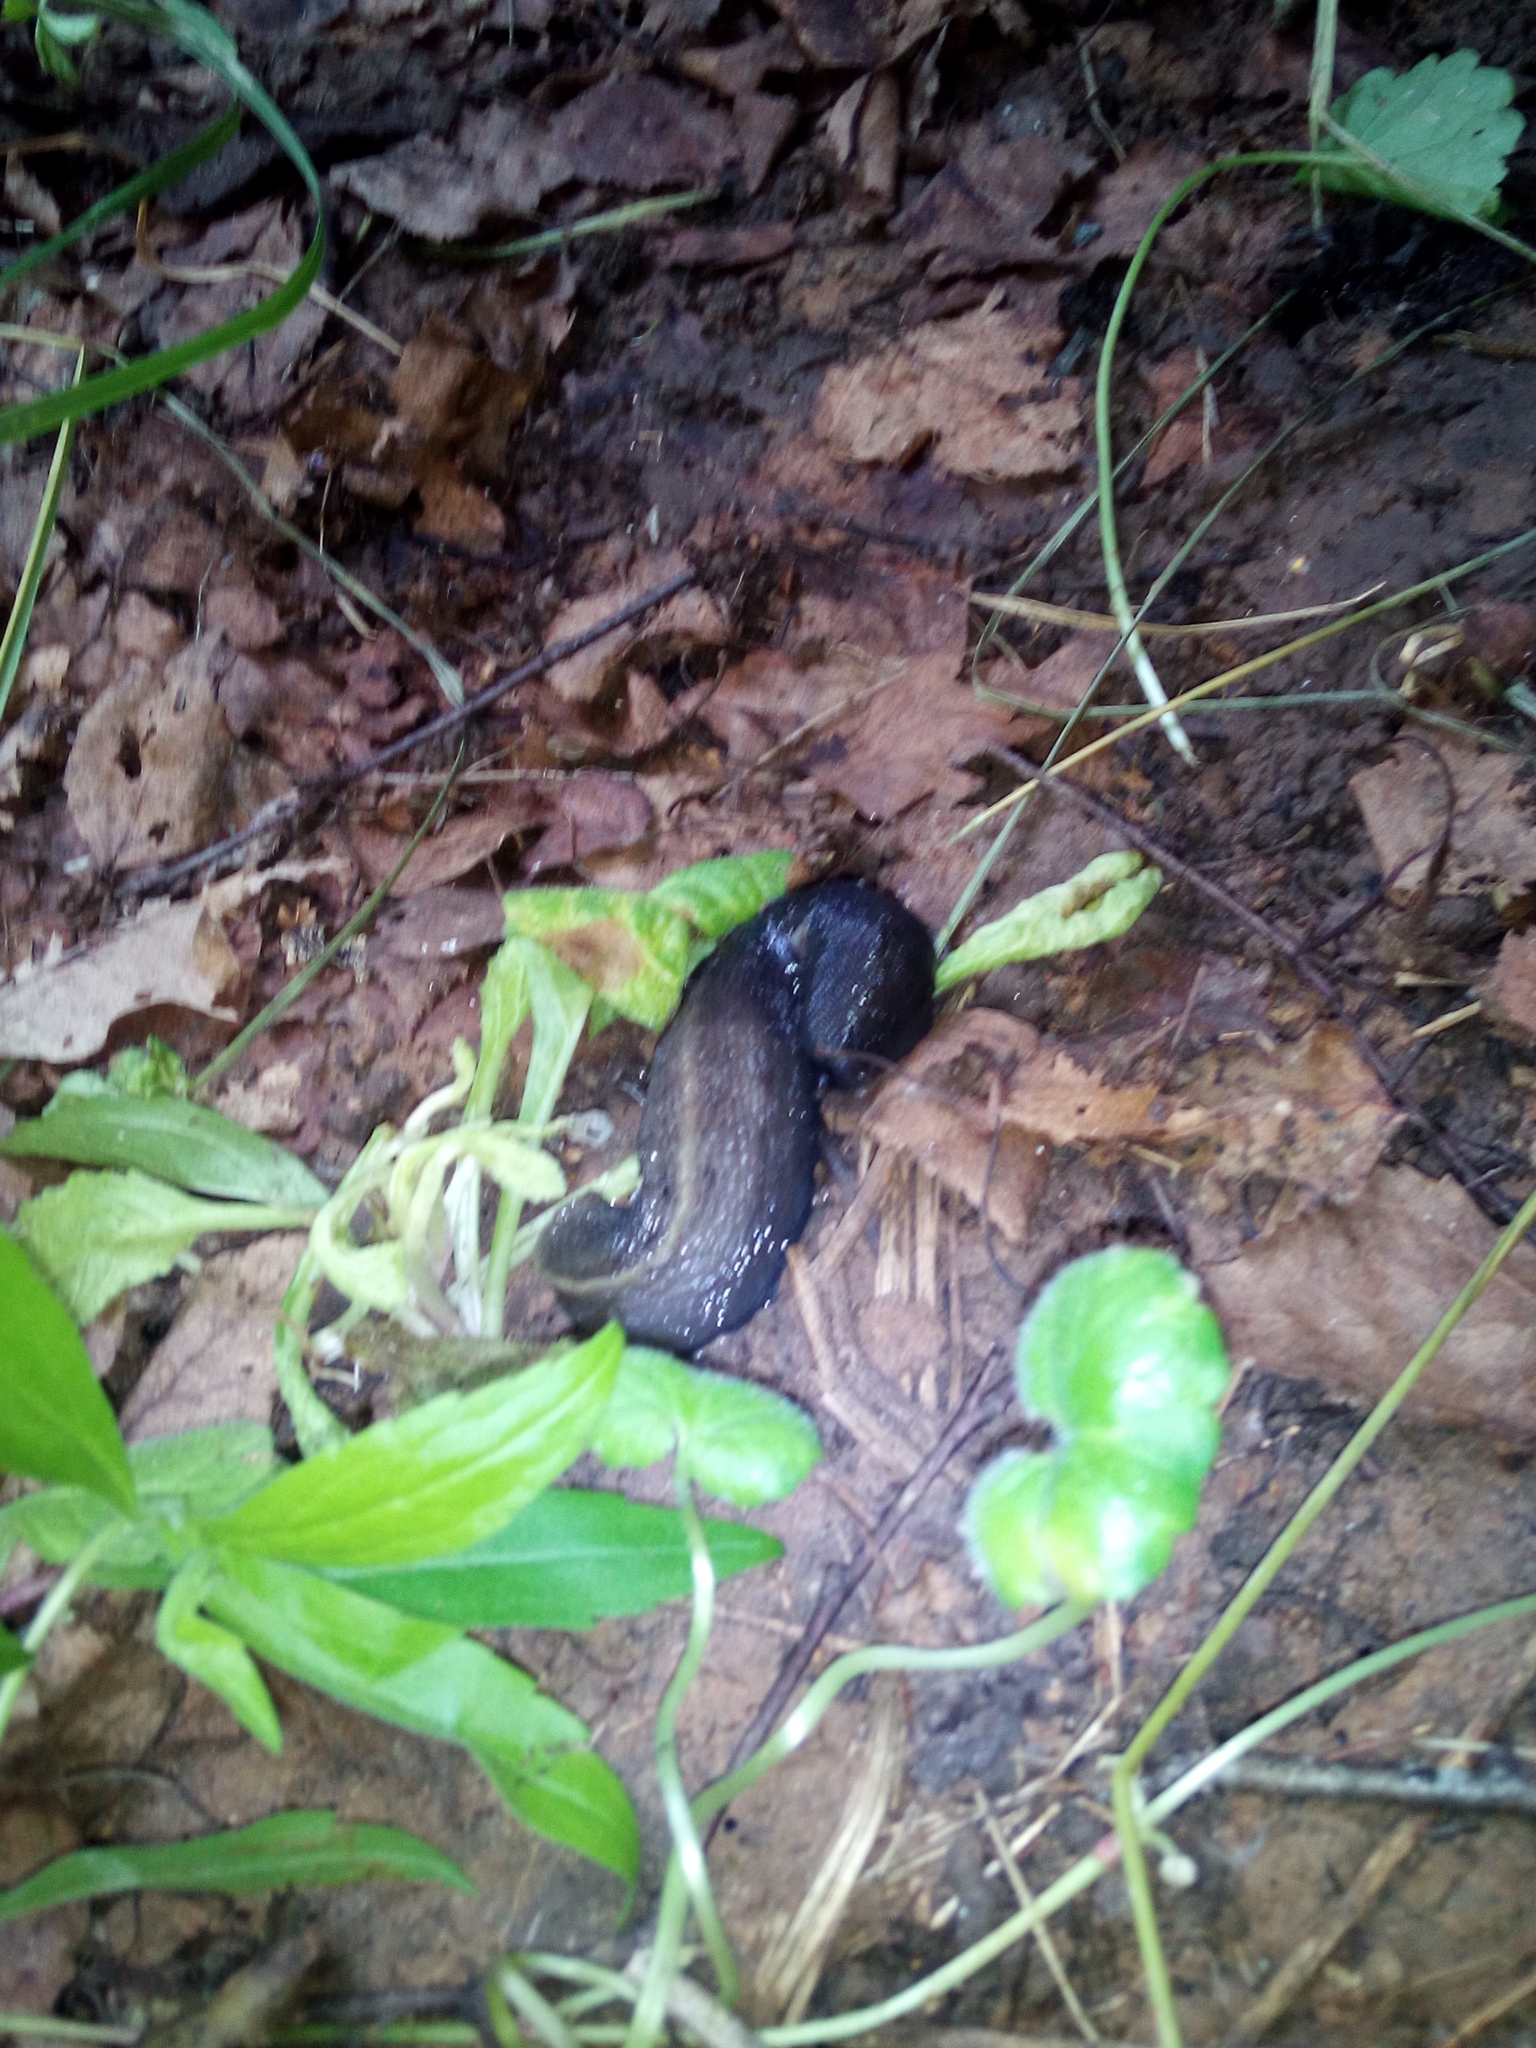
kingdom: Animalia
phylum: Mollusca
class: Gastropoda
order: Stylommatophora
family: Limacidae
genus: Limax
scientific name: Limax cinereoniger
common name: Ash-black slug
